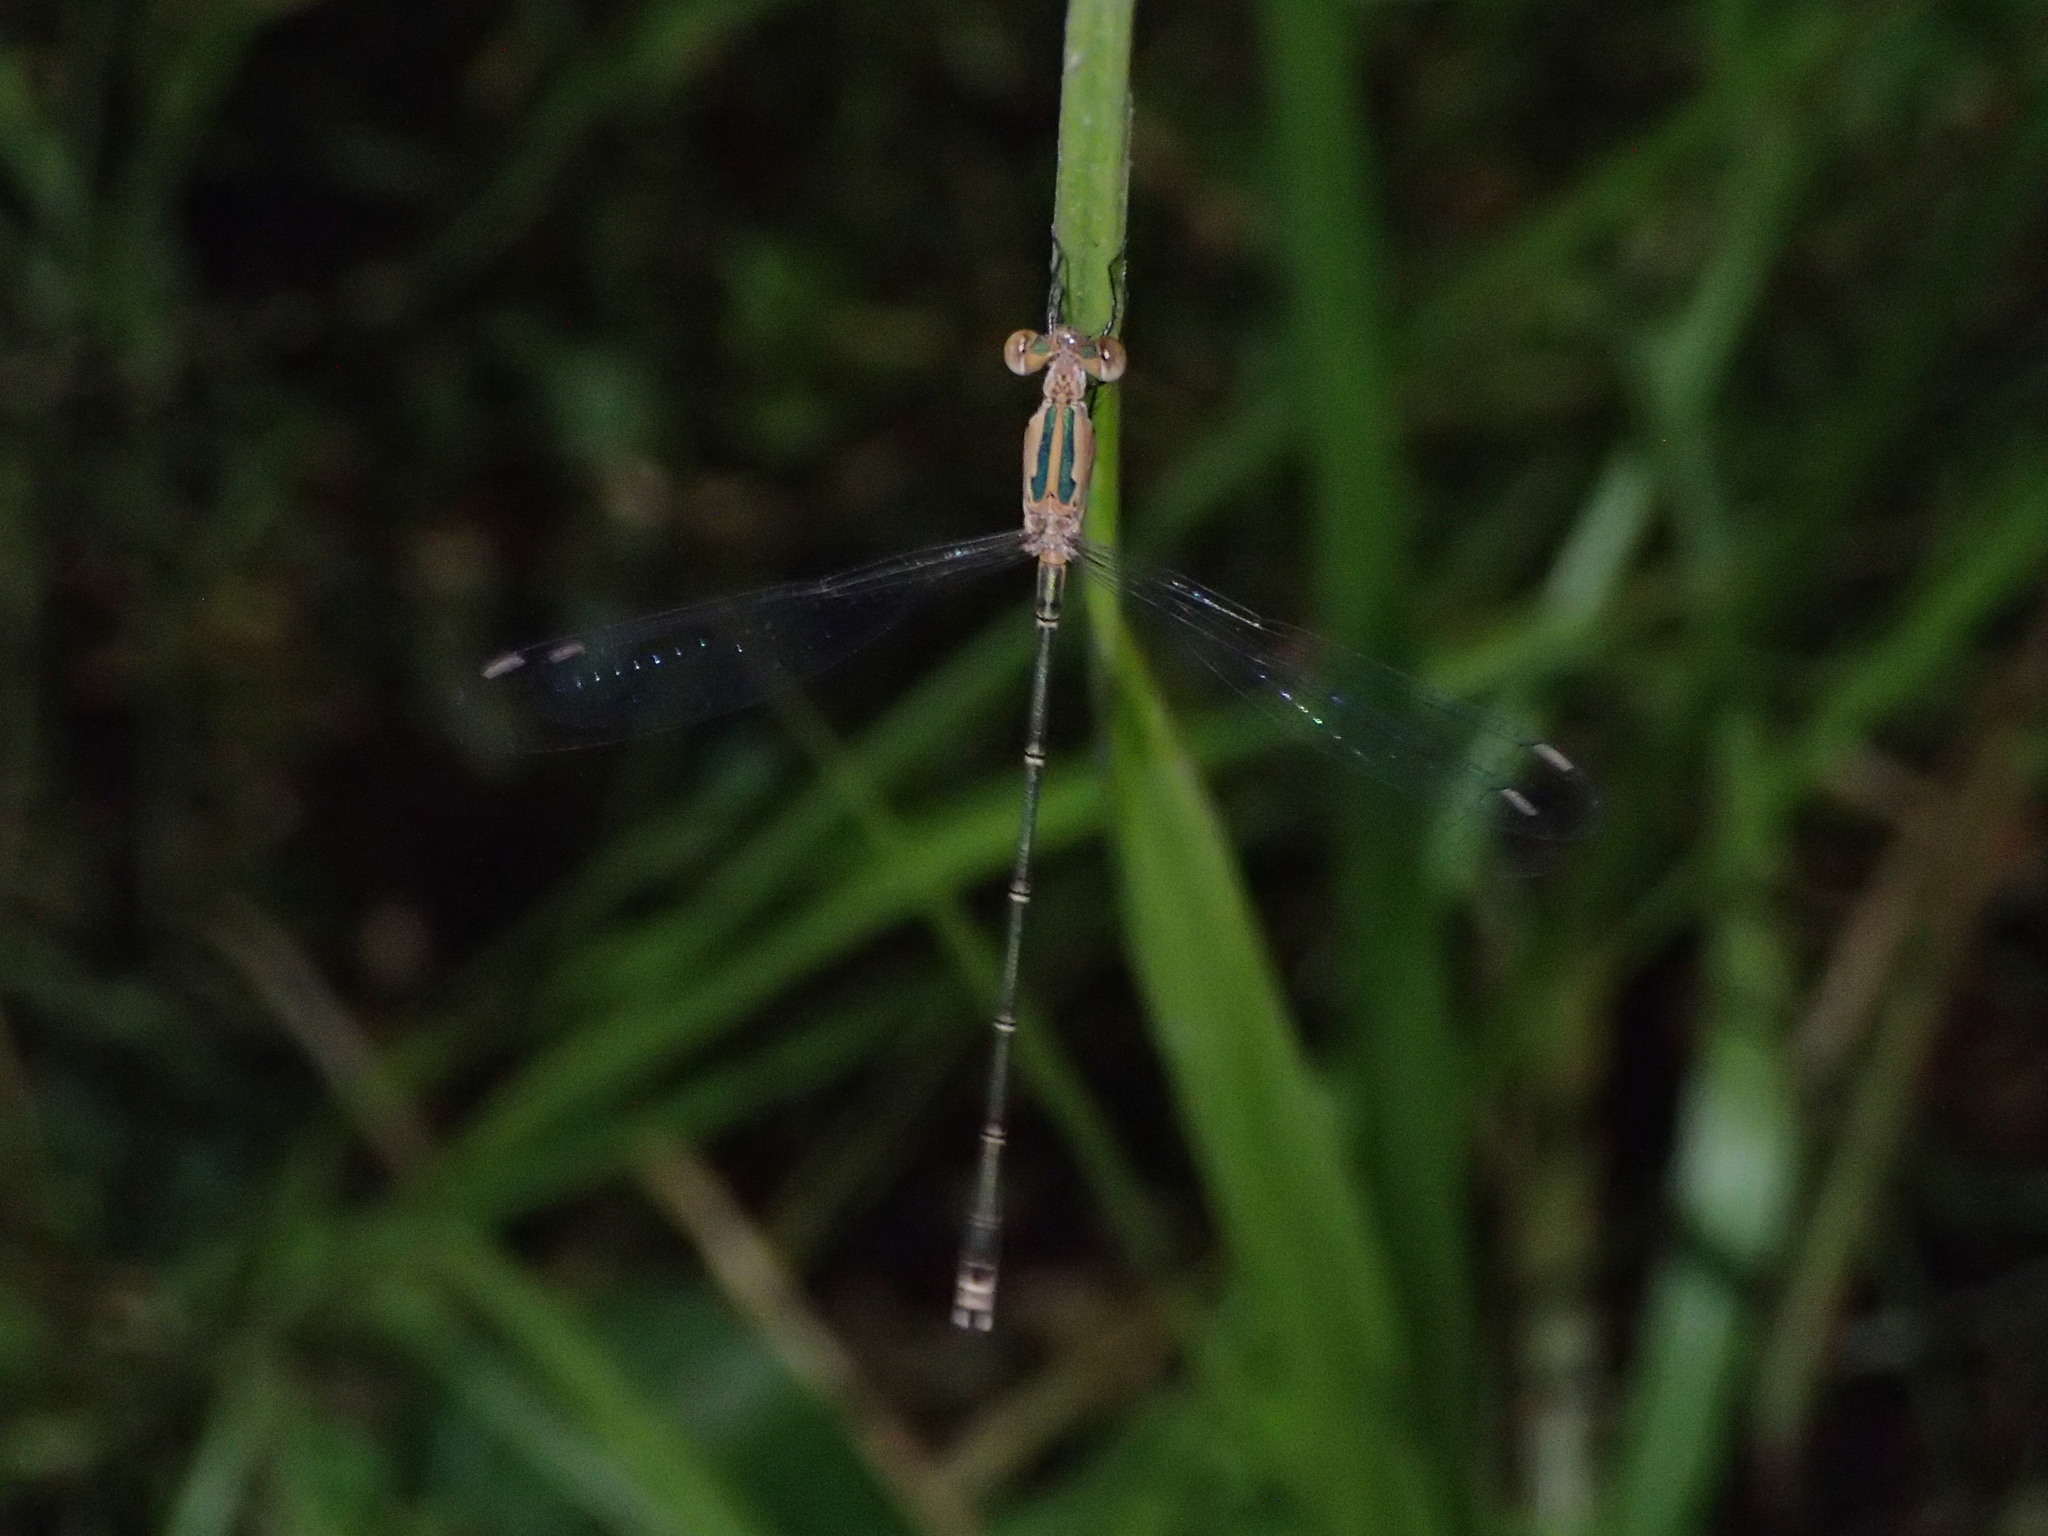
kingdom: Animalia
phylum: Arthropoda
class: Insecta
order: Odonata
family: Lestidae
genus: Lestes
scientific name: Lestes elatus
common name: Emerald spreadwing
